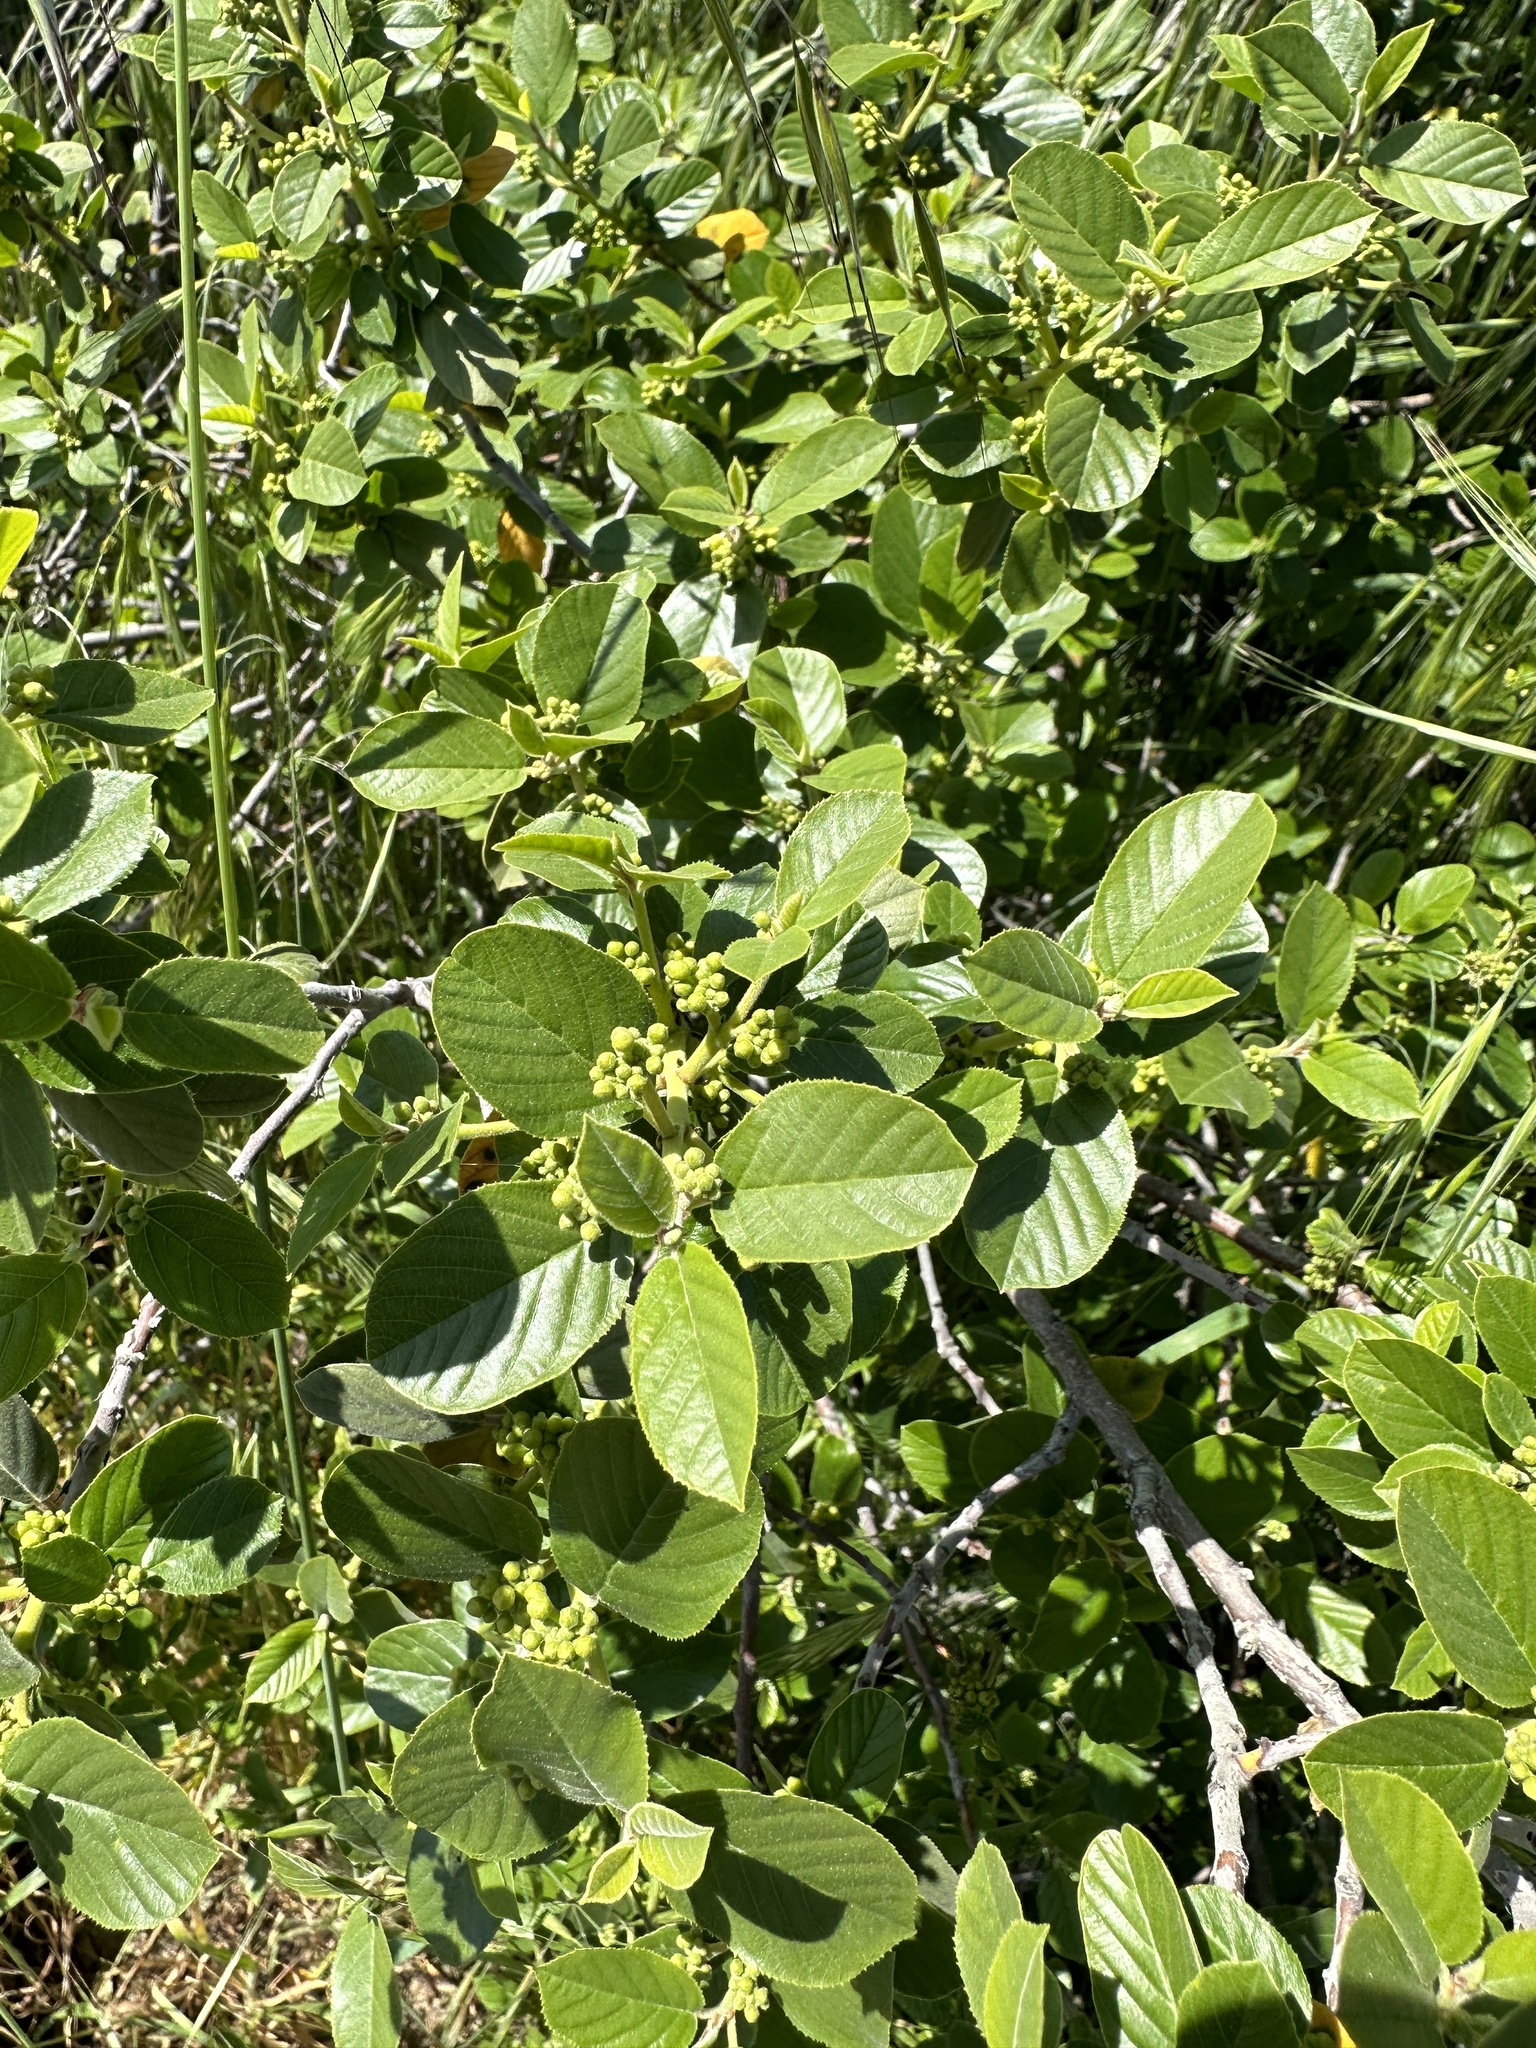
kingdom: Plantae
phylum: Tracheophyta
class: Magnoliopsida
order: Rosales
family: Rhamnaceae
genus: Frangula
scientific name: Frangula californica
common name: California buckthorn
